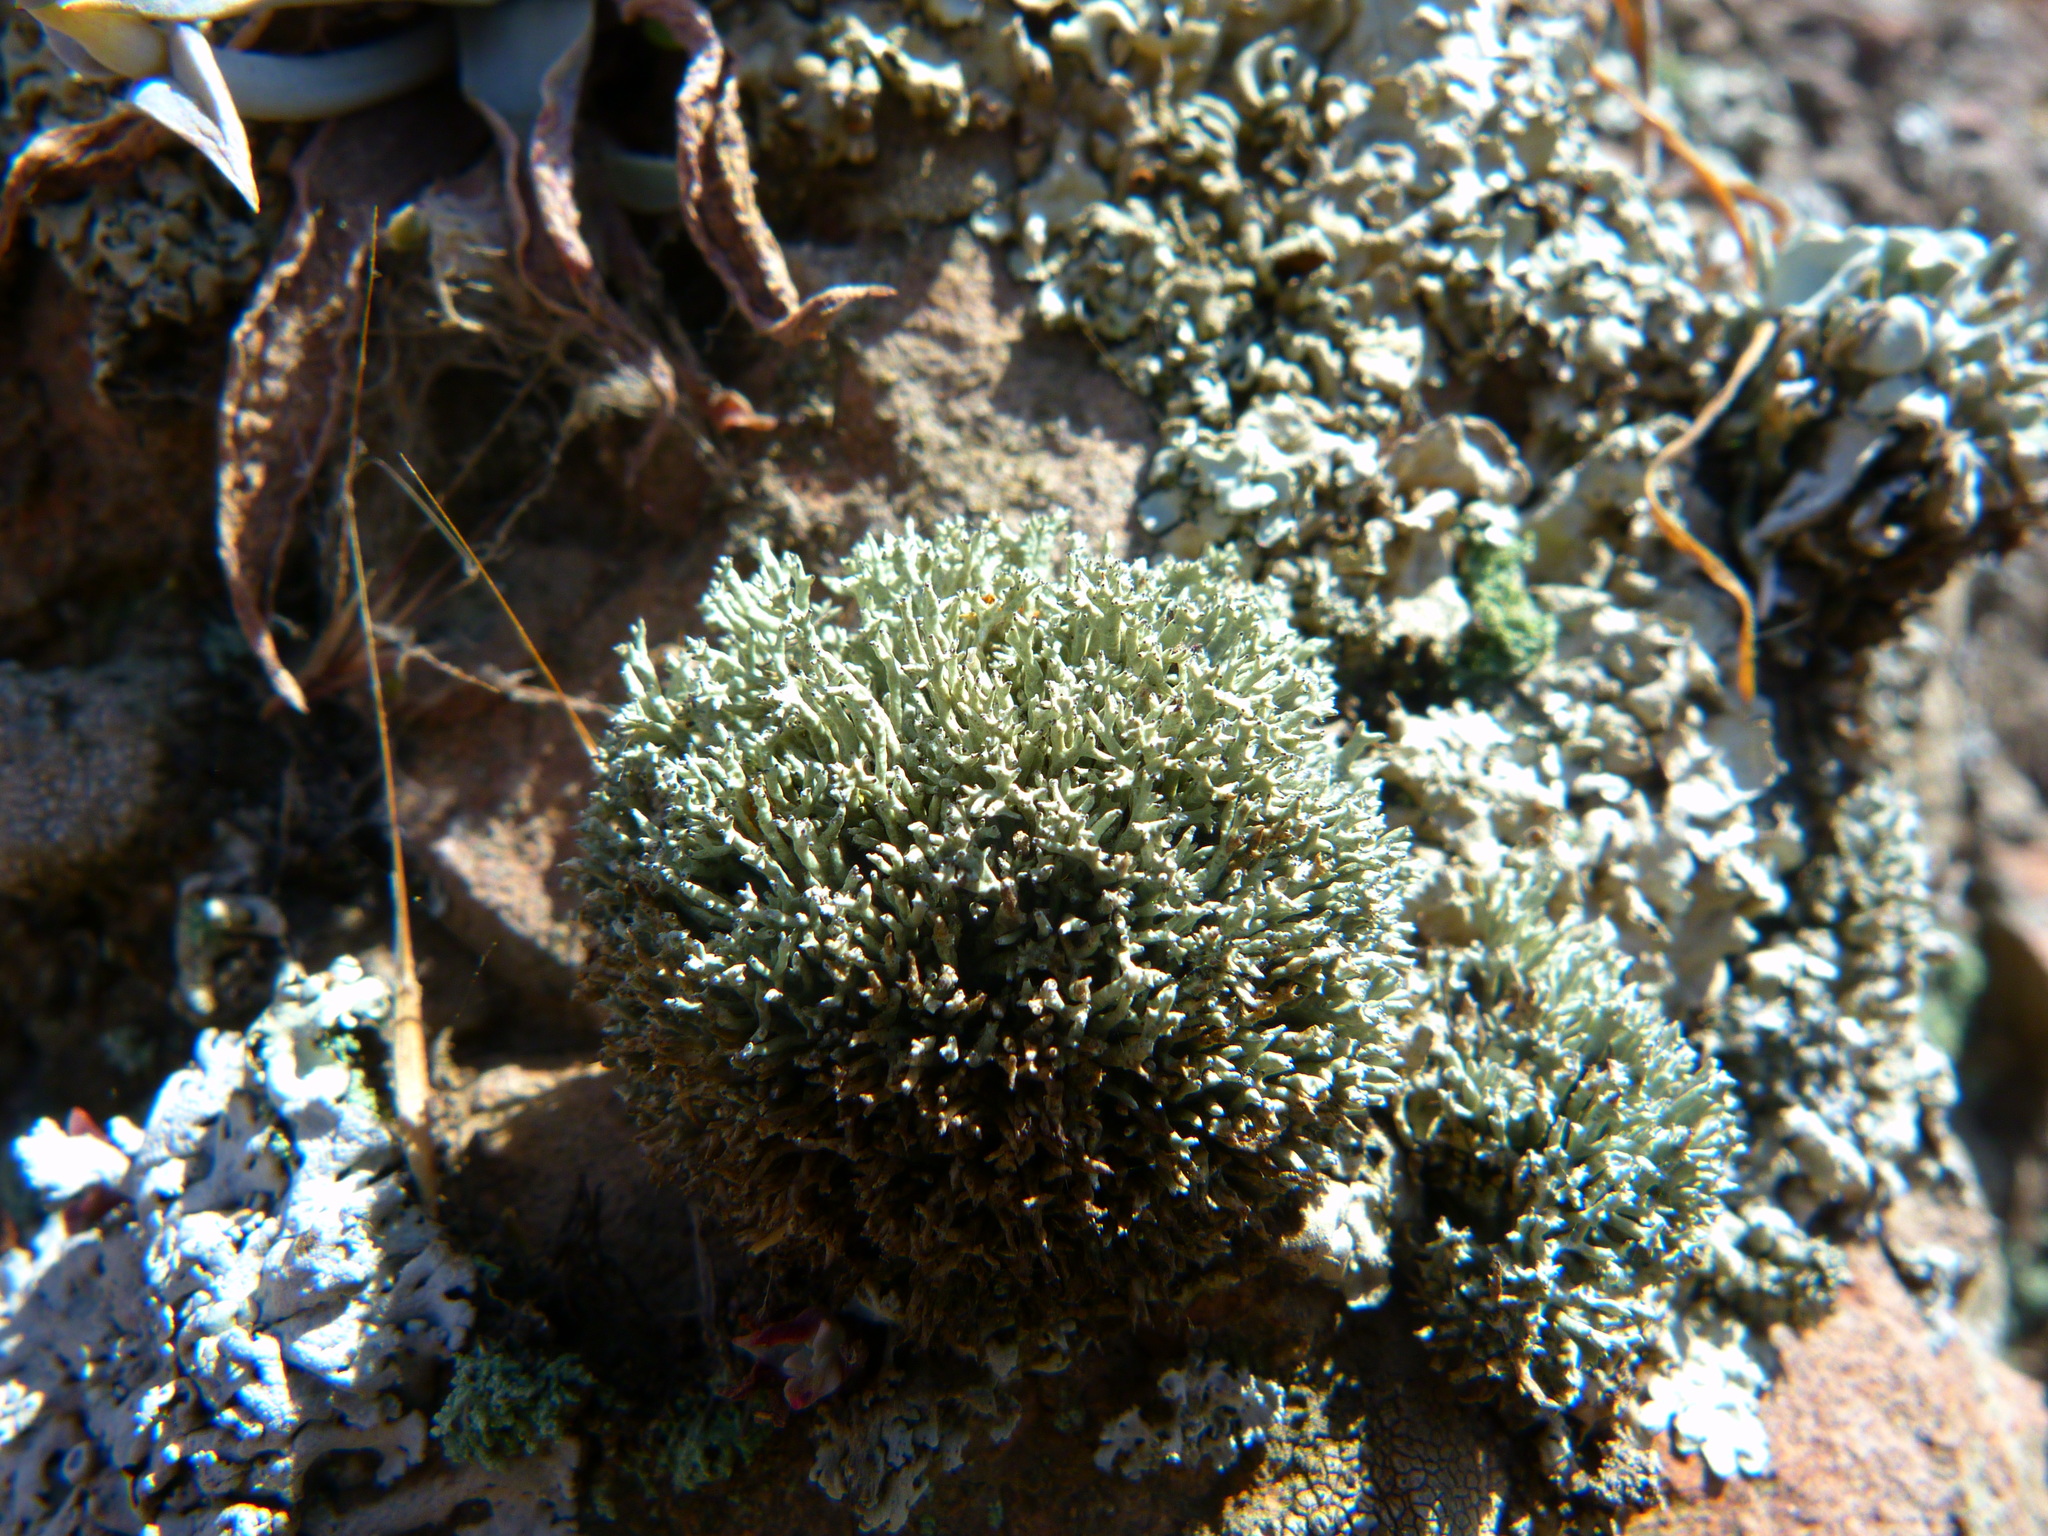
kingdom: Fungi
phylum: Ascomycota
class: Lecanoromycetes
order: Lecanorales
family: Ramalinaceae
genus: Niebla
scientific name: Niebla ceruchoides
